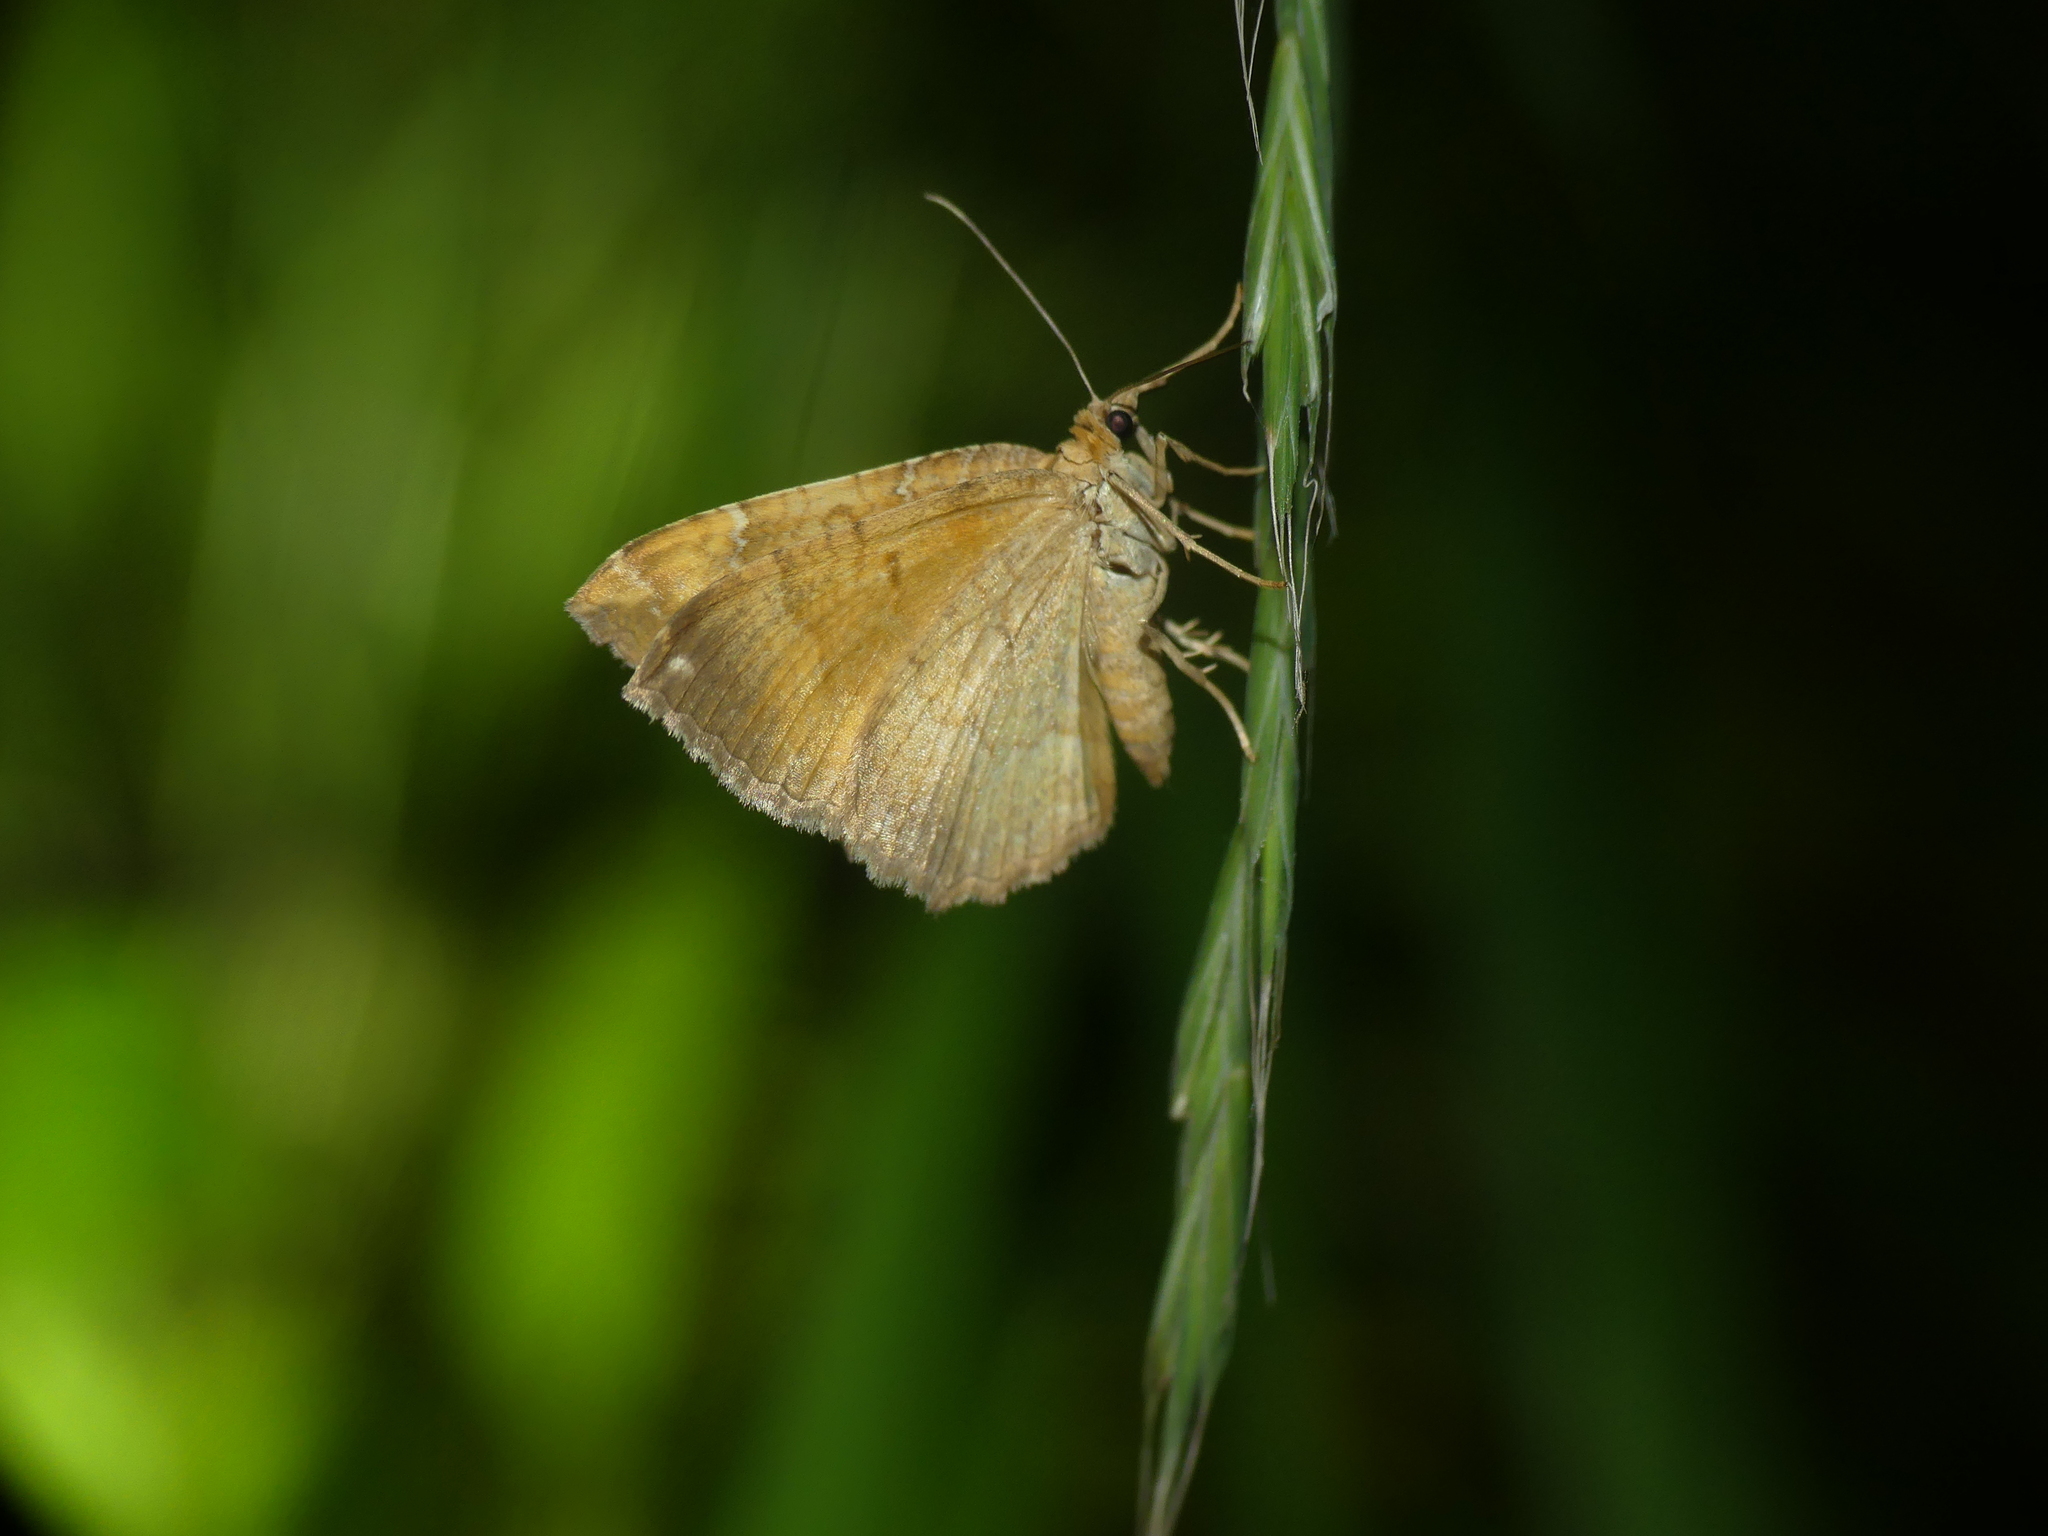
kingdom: Animalia
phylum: Arthropoda
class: Insecta
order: Lepidoptera
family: Geometridae
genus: Camptogramma
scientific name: Camptogramma bilineata
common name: Yellow shell
